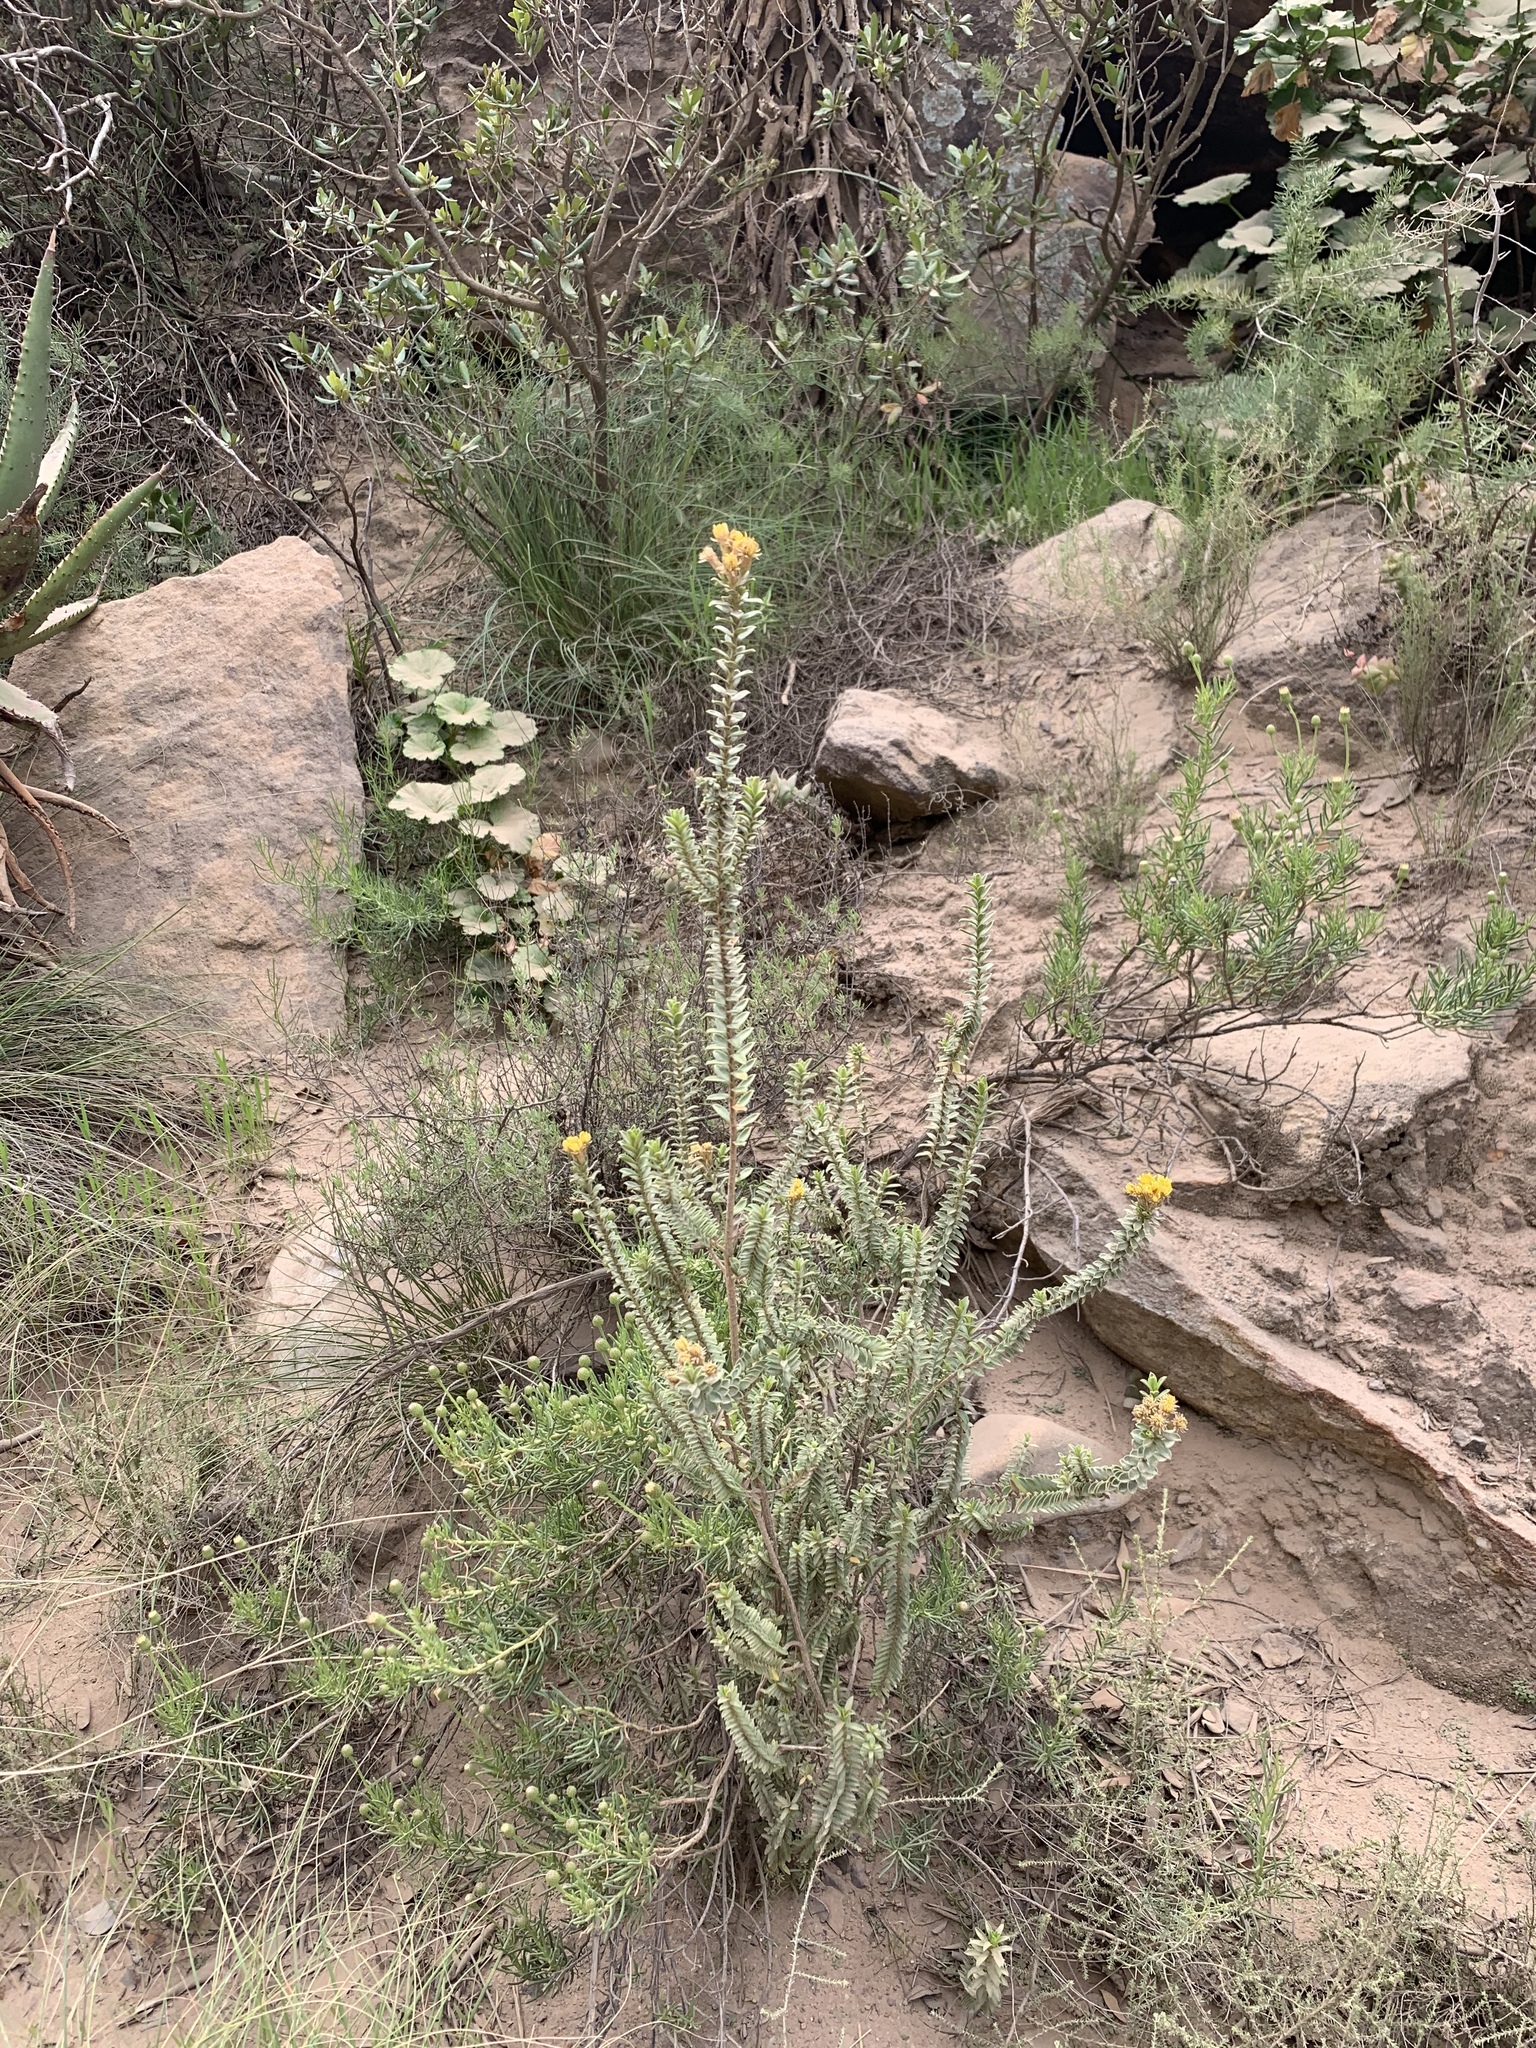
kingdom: Plantae
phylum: Tracheophyta
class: Magnoliopsida
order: Asterales
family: Asteraceae
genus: Oedera
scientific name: Oedera squarrosa
